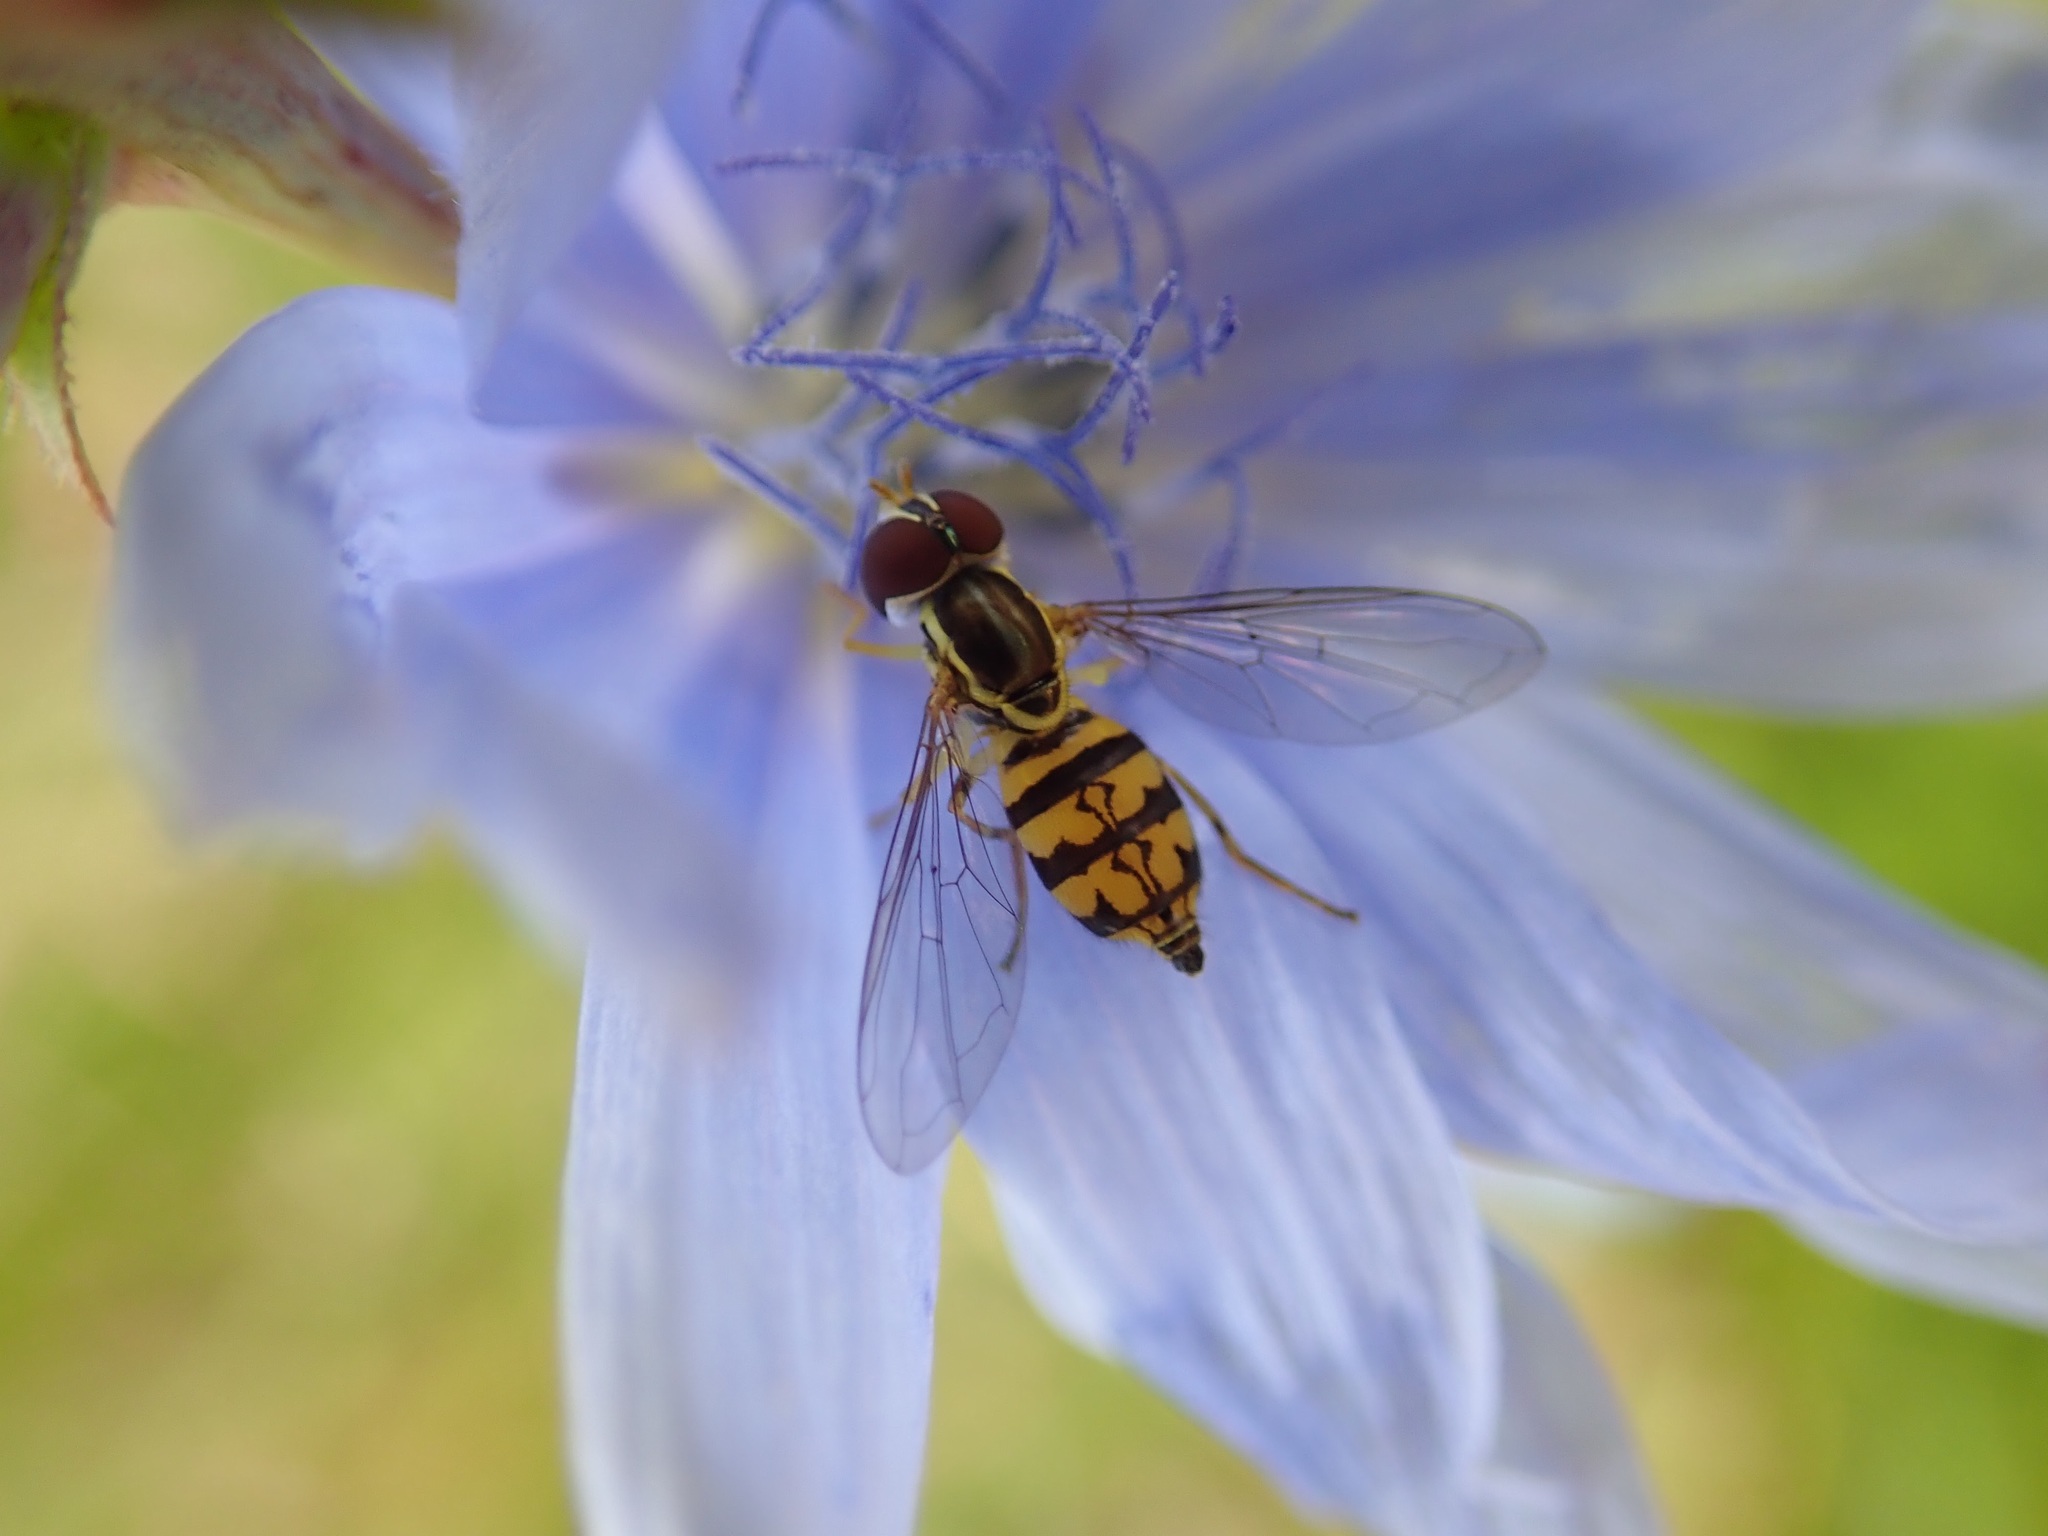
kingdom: Animalia
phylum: Arthropoda
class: Insecta
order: Diptera
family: Syrphidae
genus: Toxomerus
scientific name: Toxomerus geminatus
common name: Eastern calligrapher
